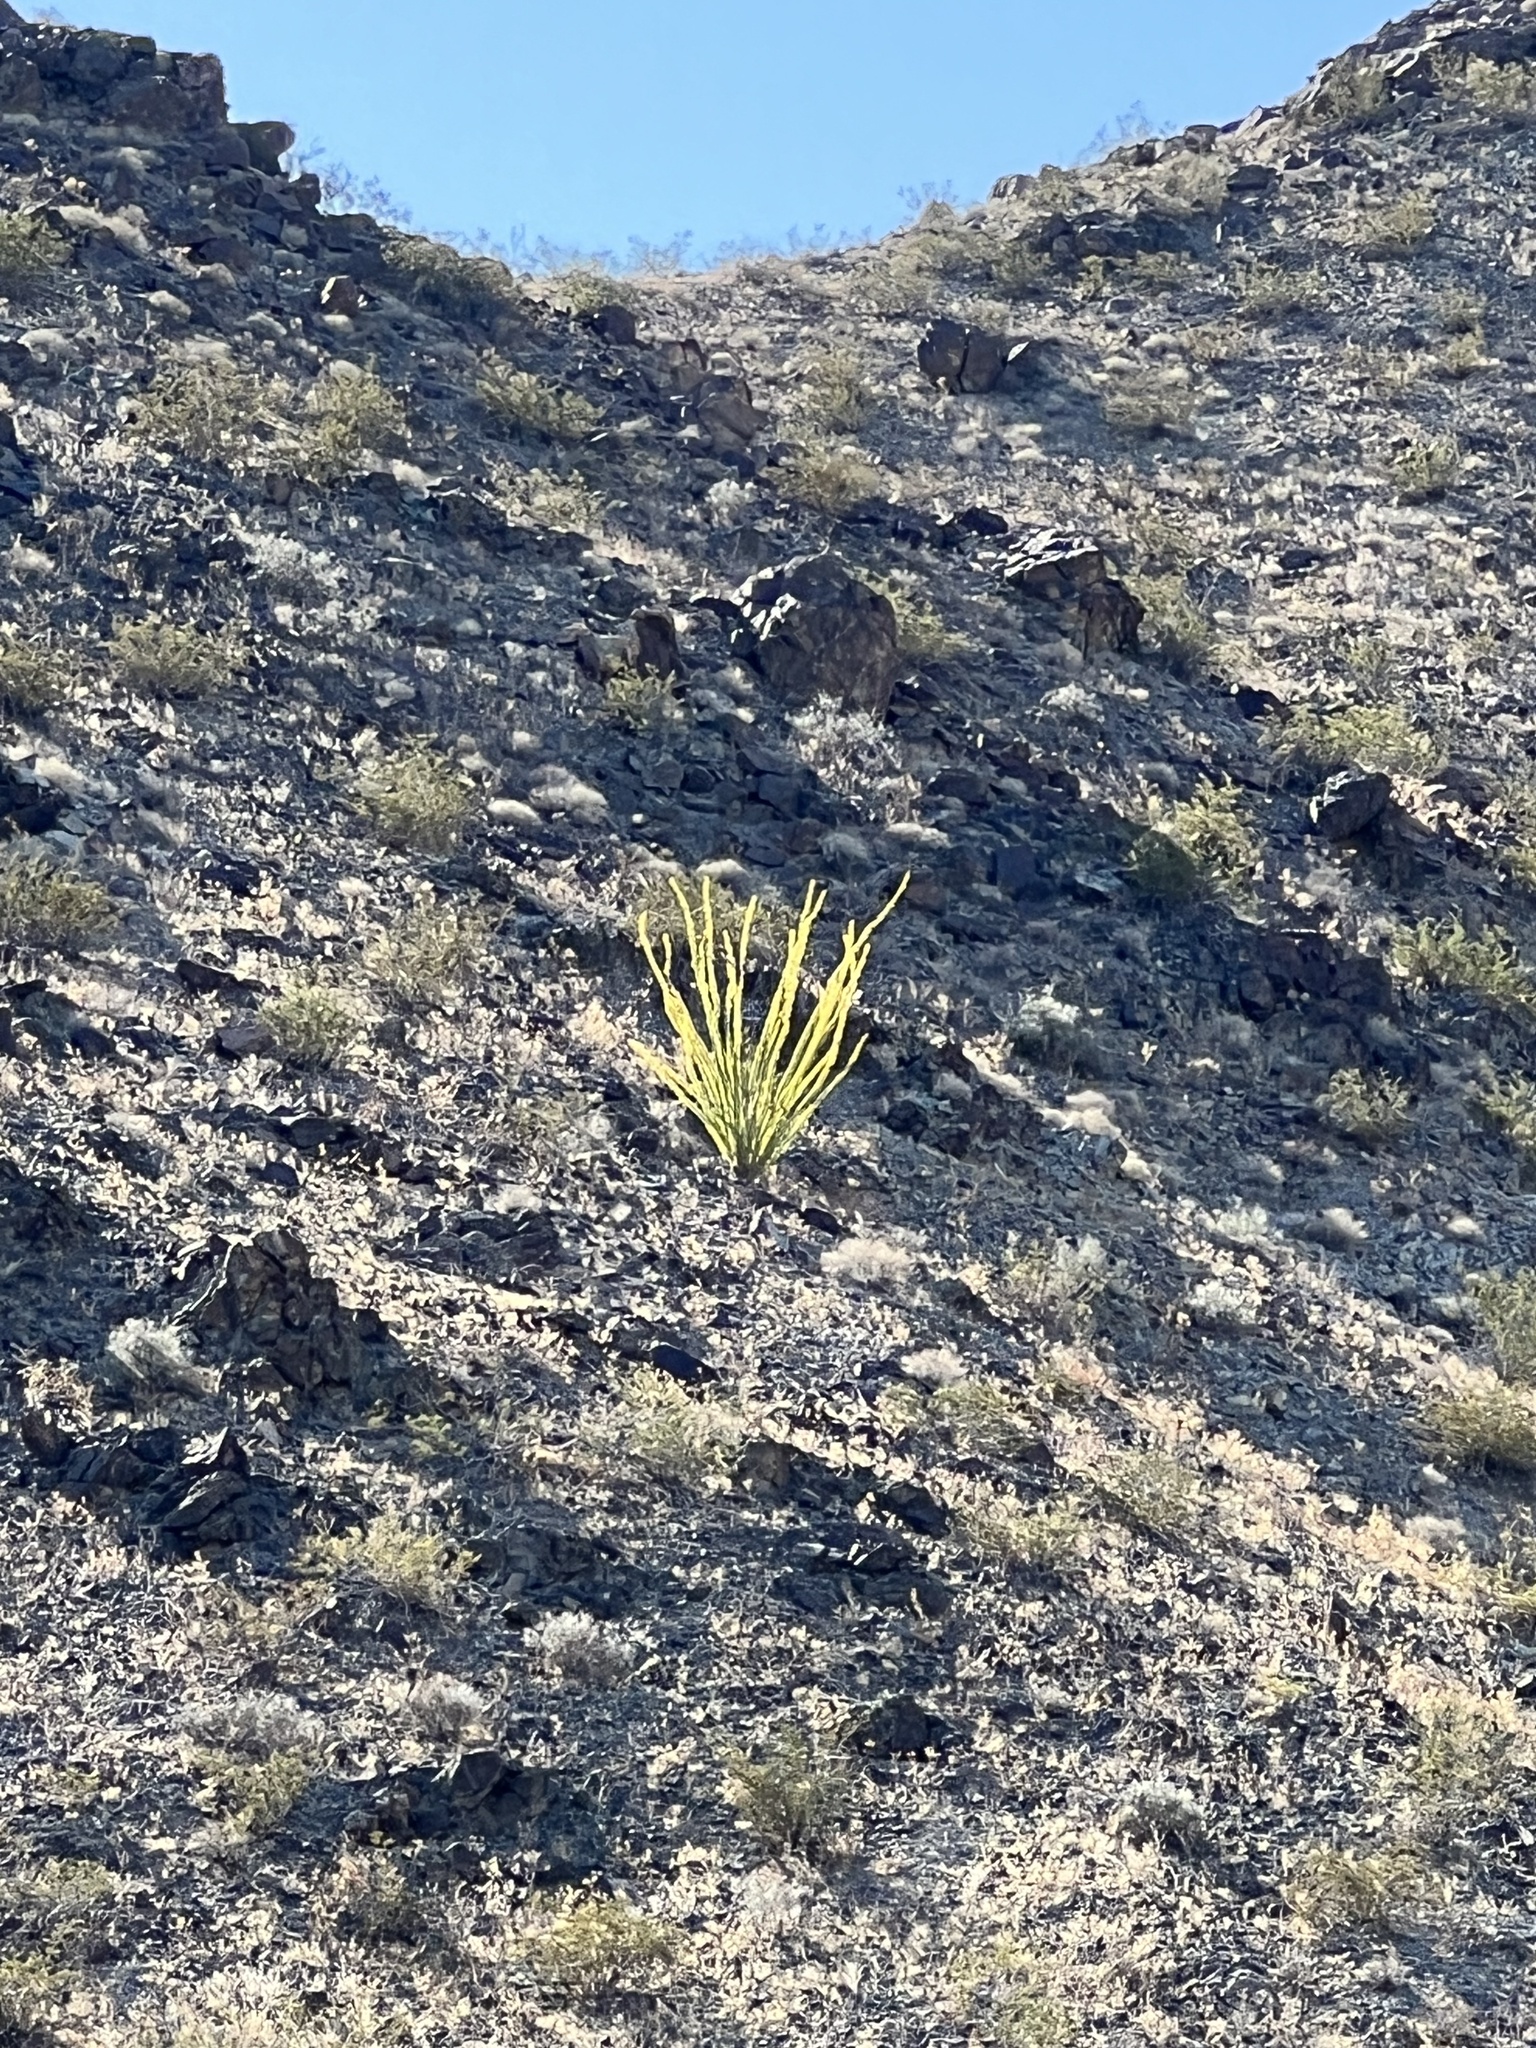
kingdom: Plantae
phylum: Tracheophyta
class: Magnoliopsida
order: Ericales
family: Fouquieriaceae
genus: Fouquieria
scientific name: Fouquieria splendens
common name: Vine-cactus
